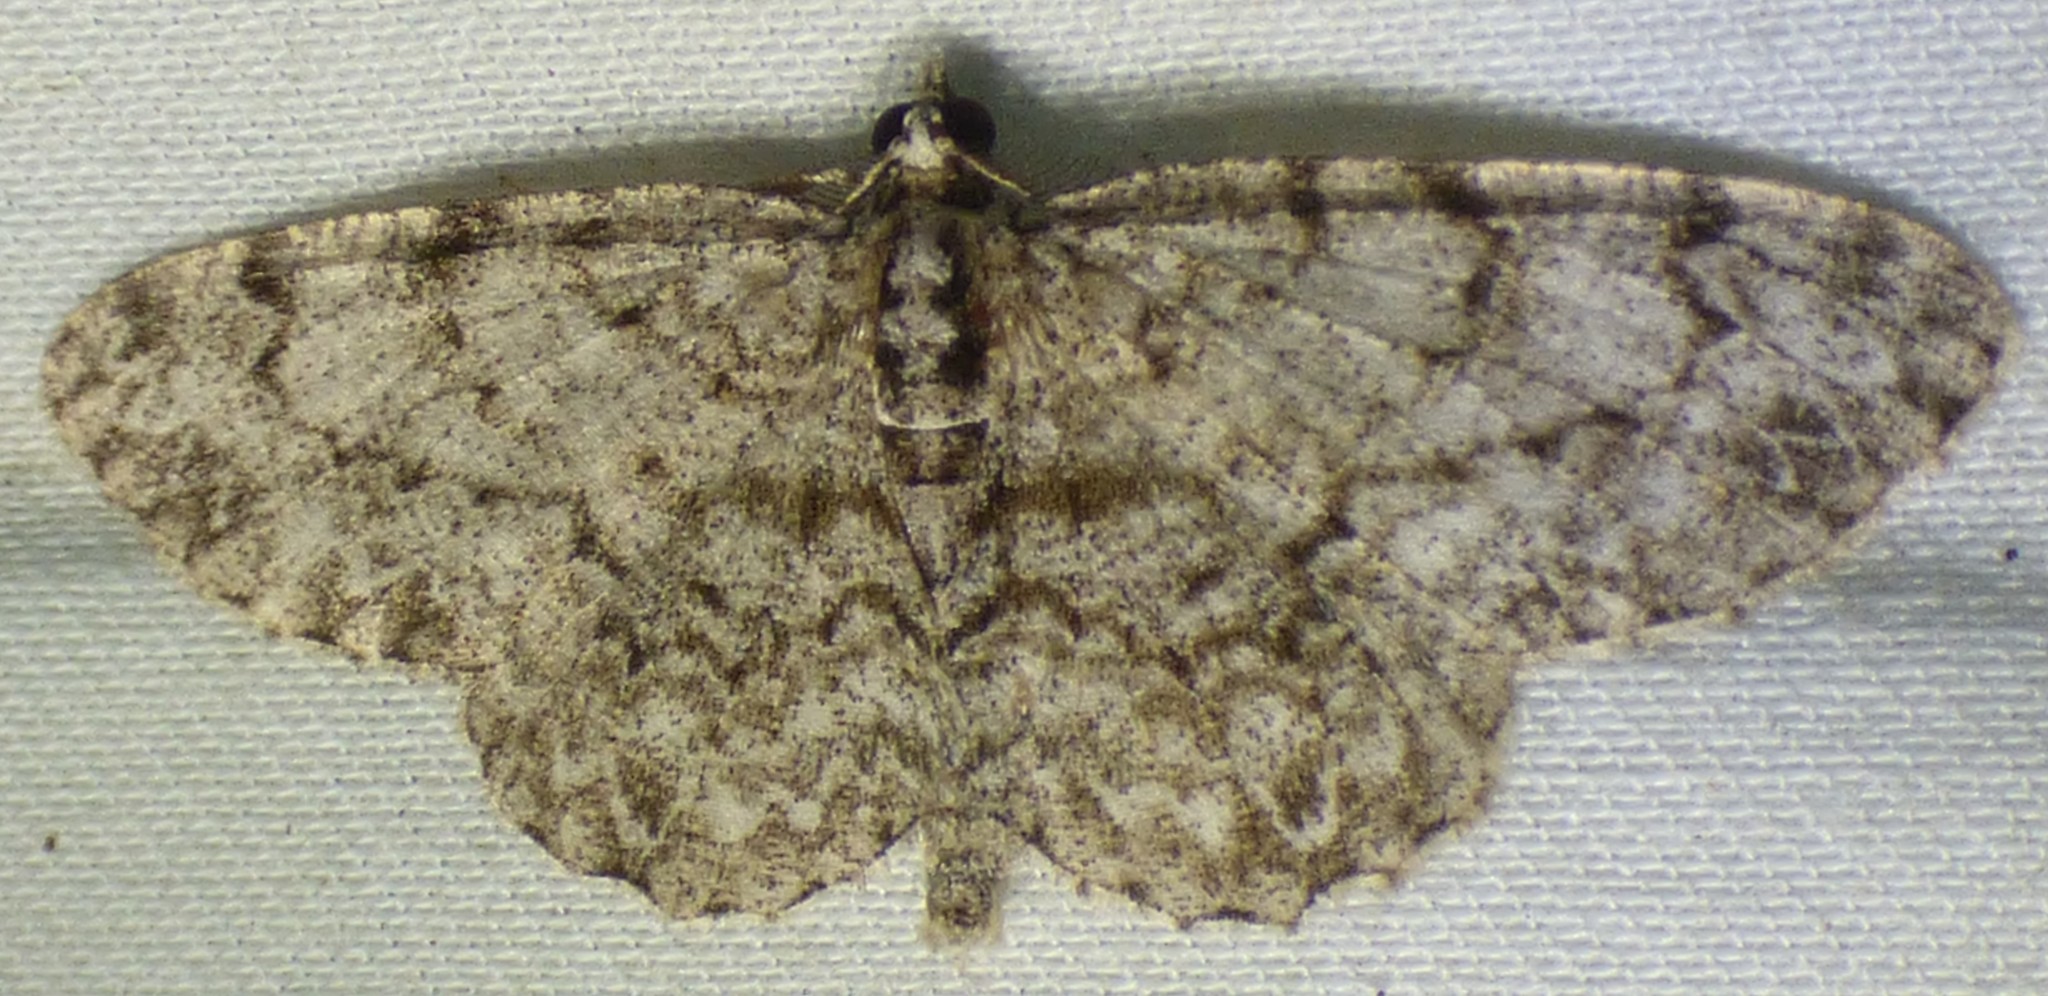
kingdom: Animalia
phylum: Arthropoda
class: Insecta
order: Lepidoptera
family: Geometridae
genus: Protoboarmia
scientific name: Protoboarmia porcelaria
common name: Porcelain gray
